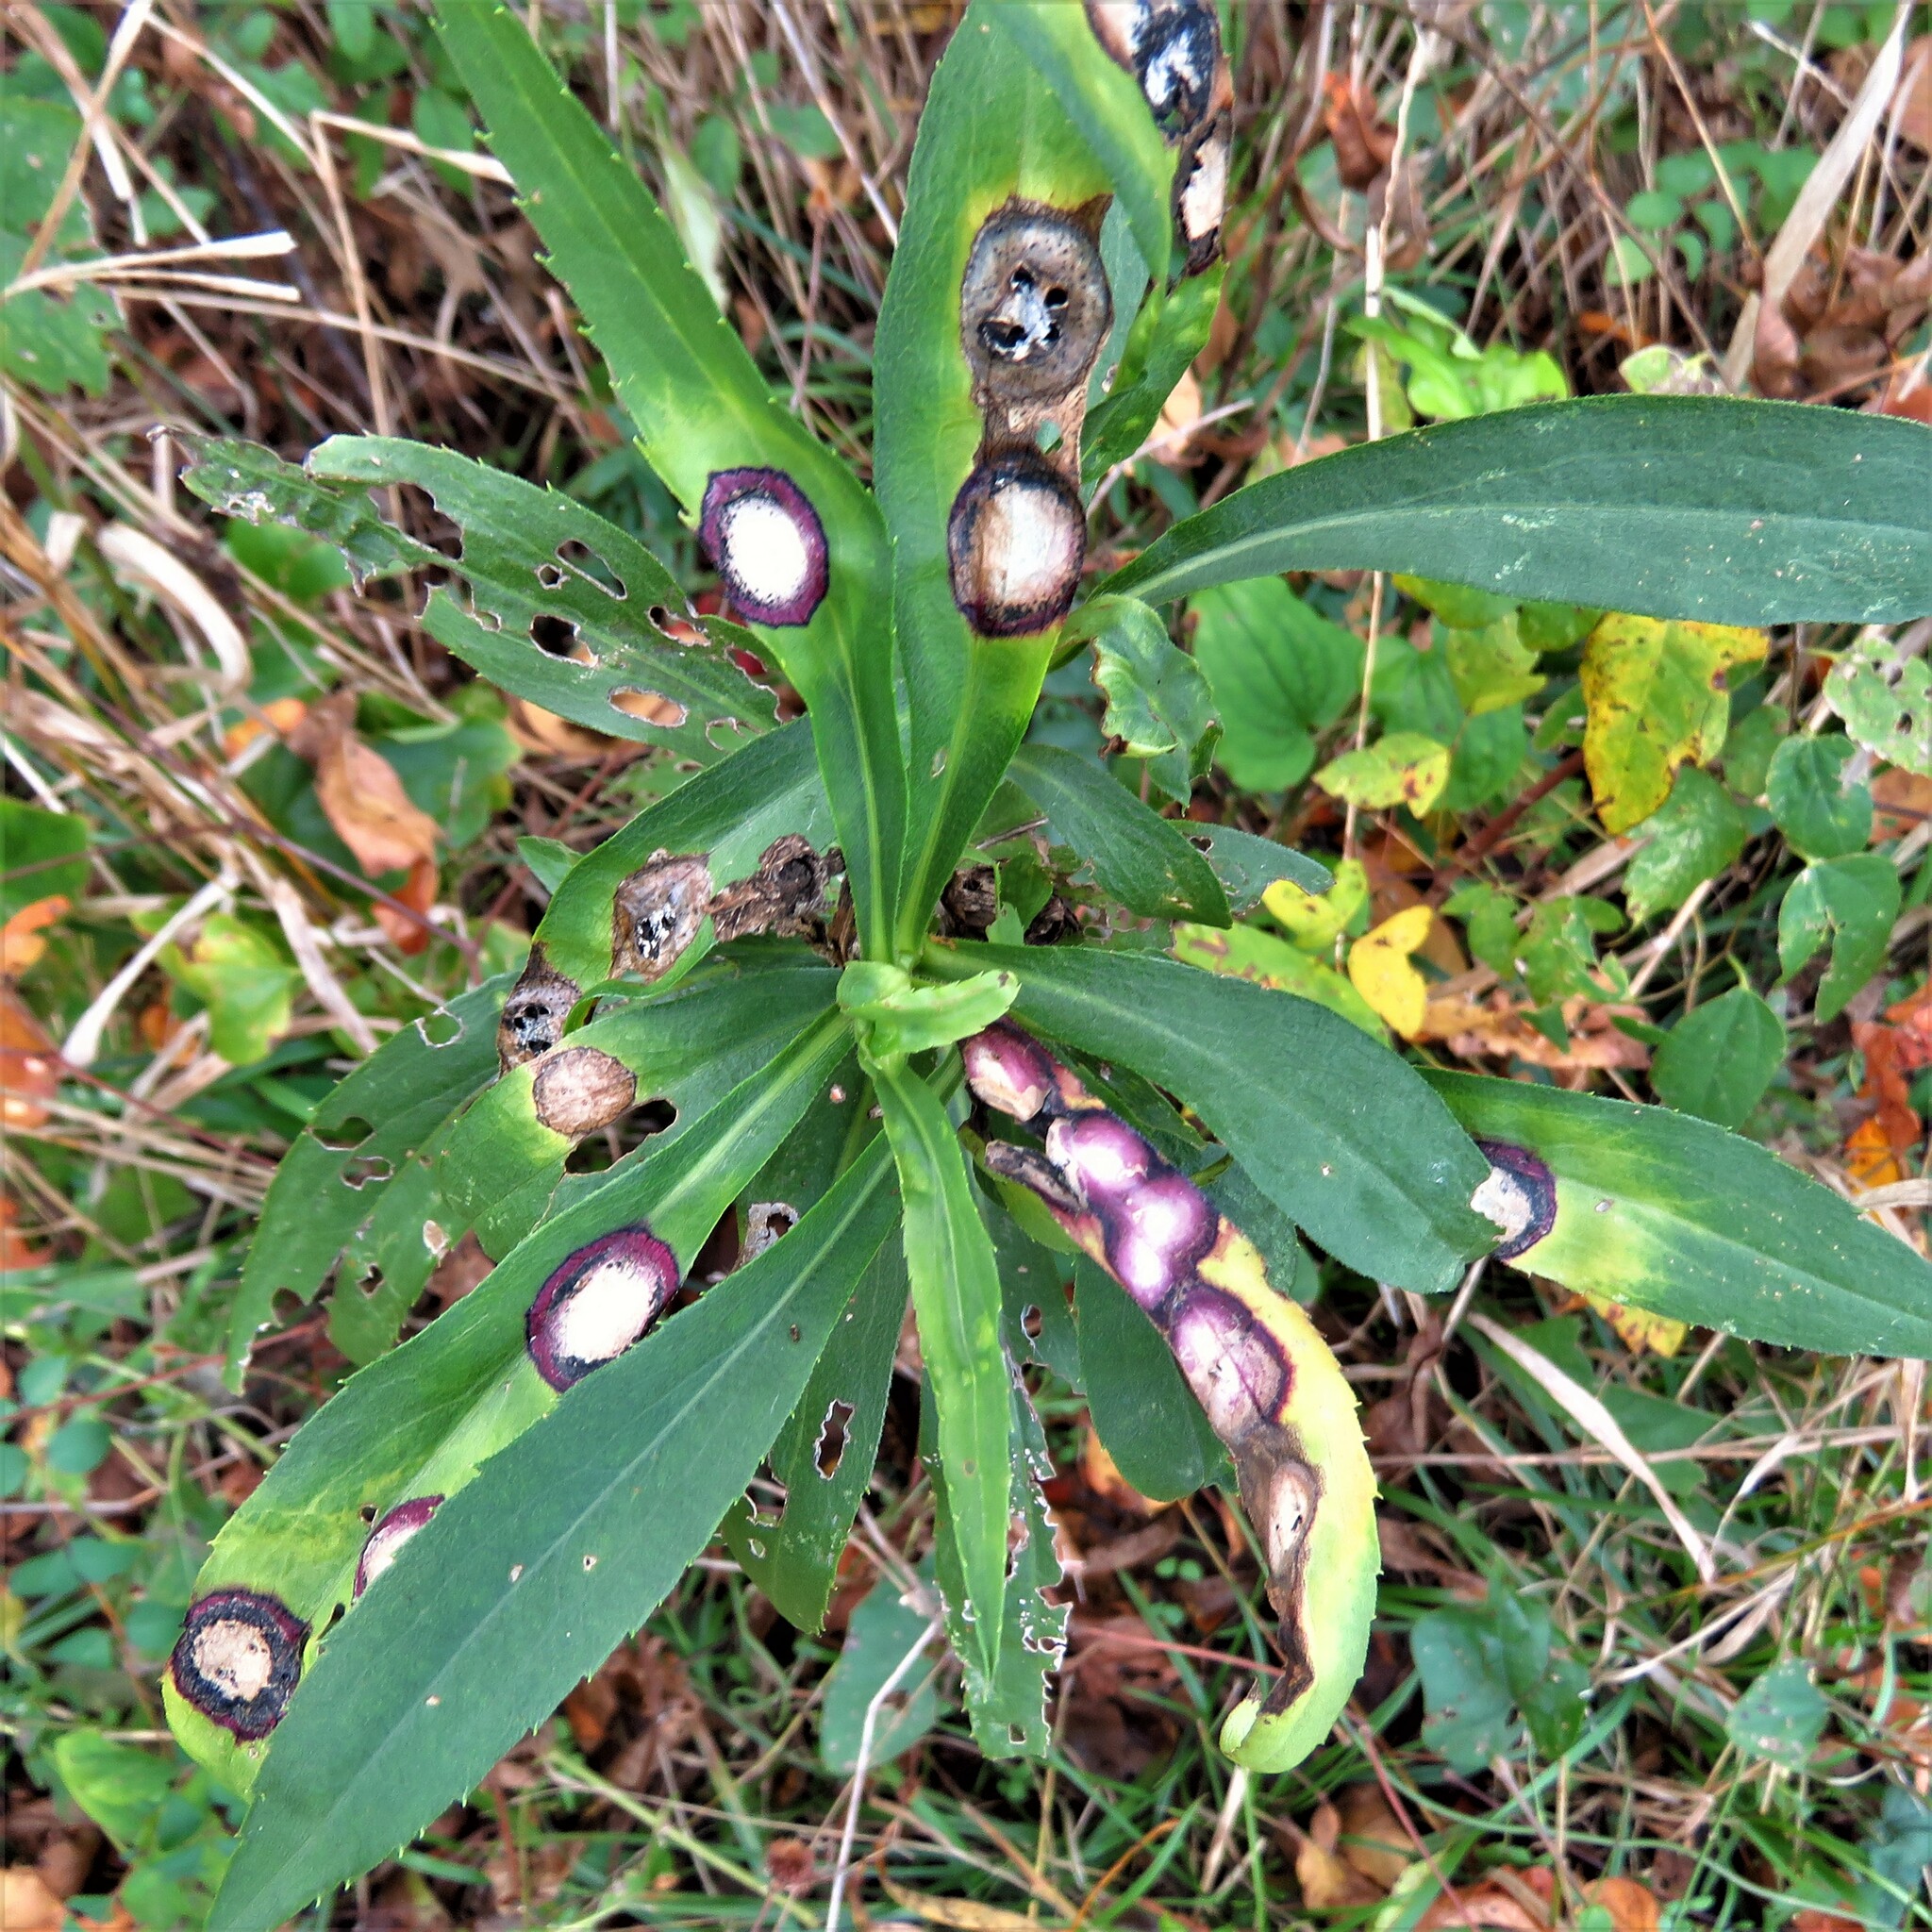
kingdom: Animalia
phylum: Arthropoda
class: Insecta
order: Diptera
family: Cecidomyiidae
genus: Asteromyia
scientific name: Asteromyia carbonifera
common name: Carbonifera goldenrod gall midge
